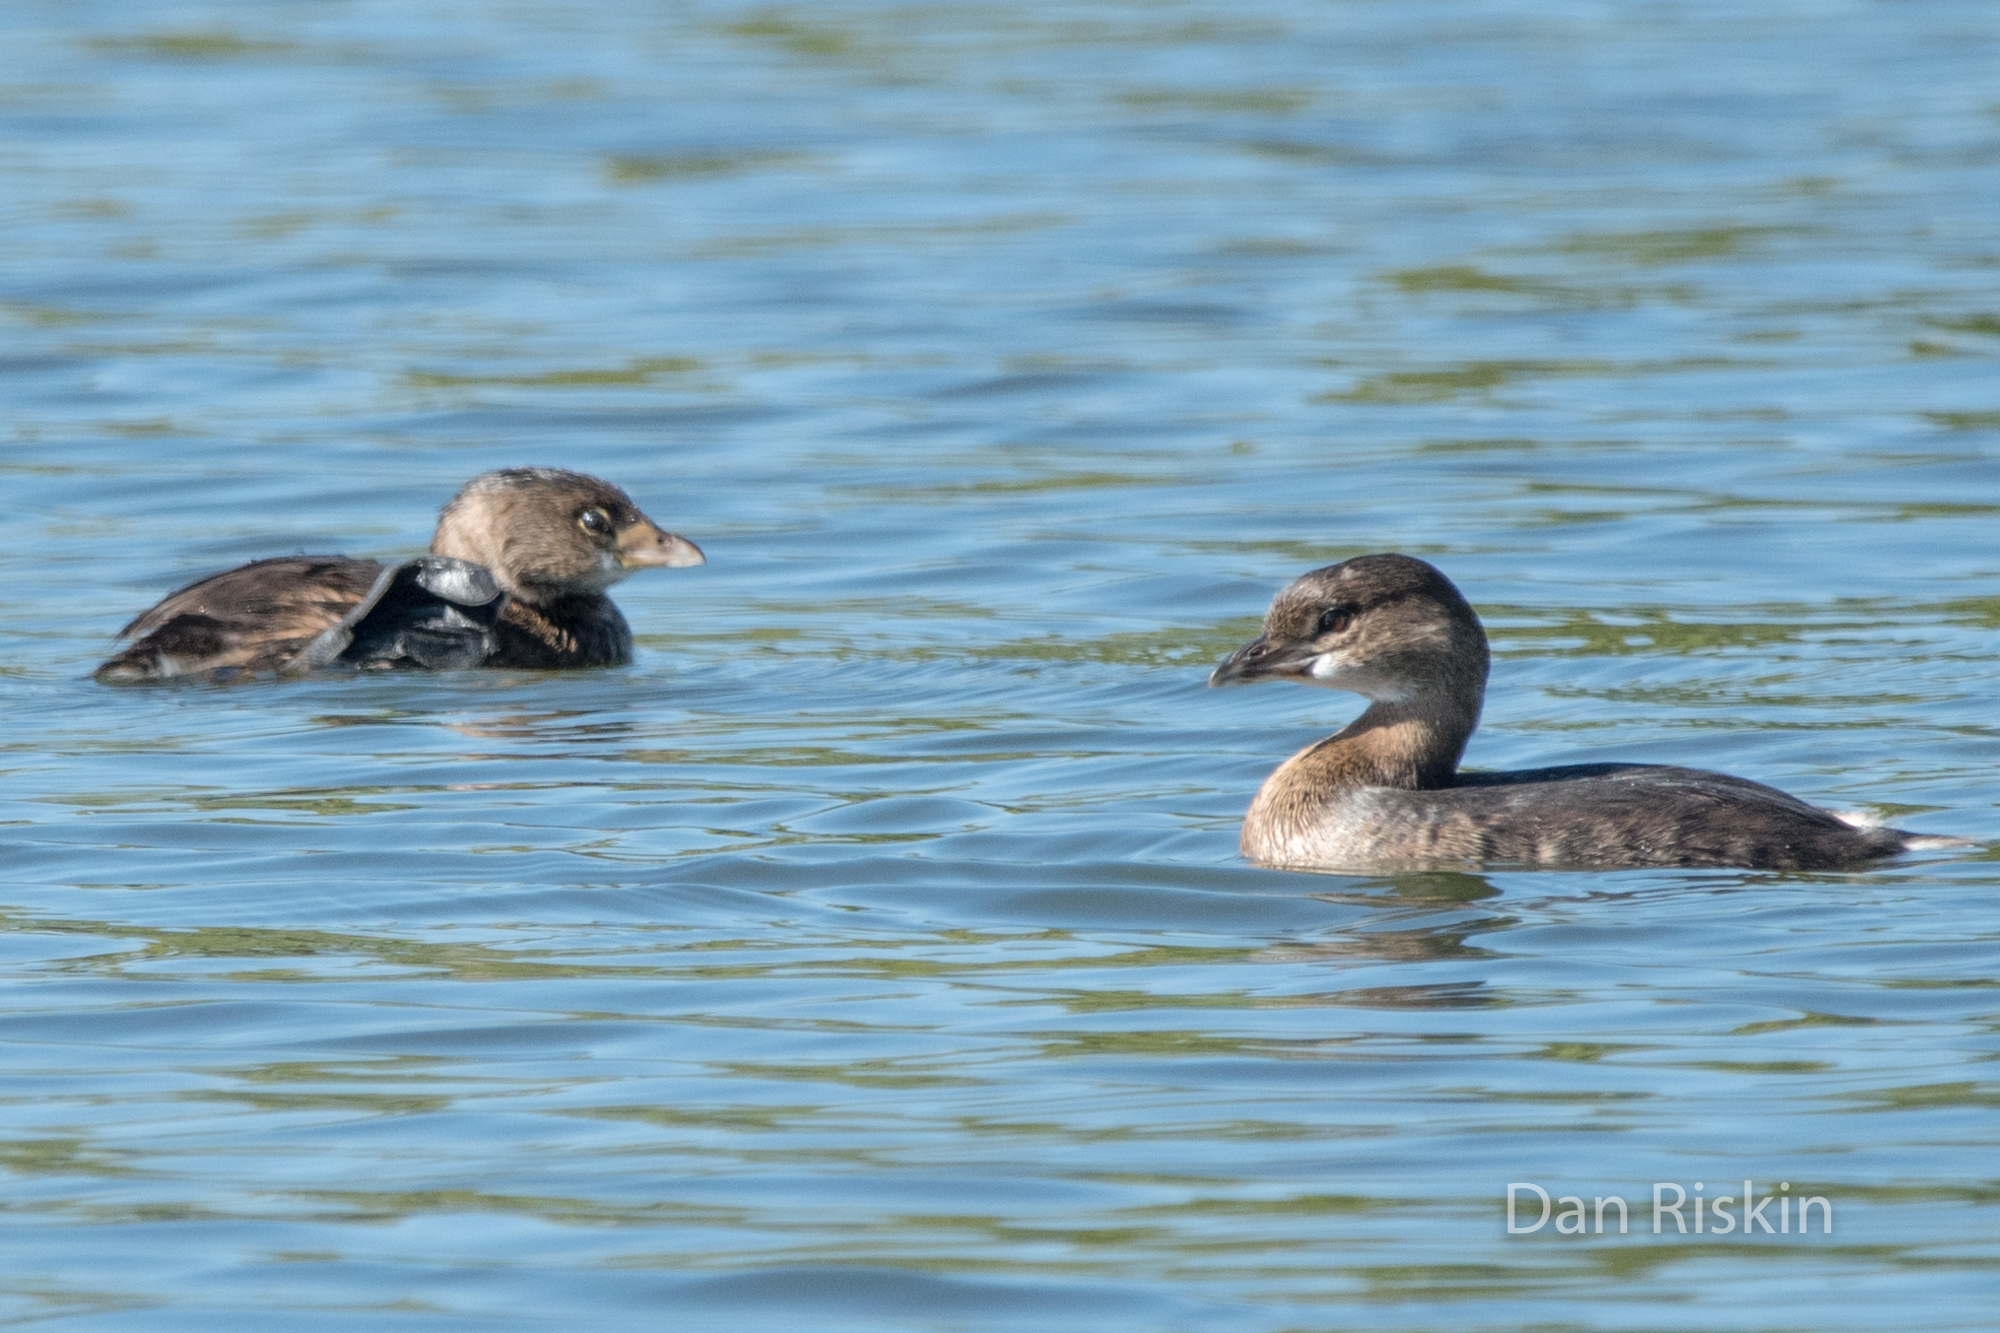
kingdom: Animalia
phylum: Chordata
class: Aves
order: Podicipediformes
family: Podicipedidae
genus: Podilymbus
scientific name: Podilymbus podiceps
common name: Pied-billed grebe
